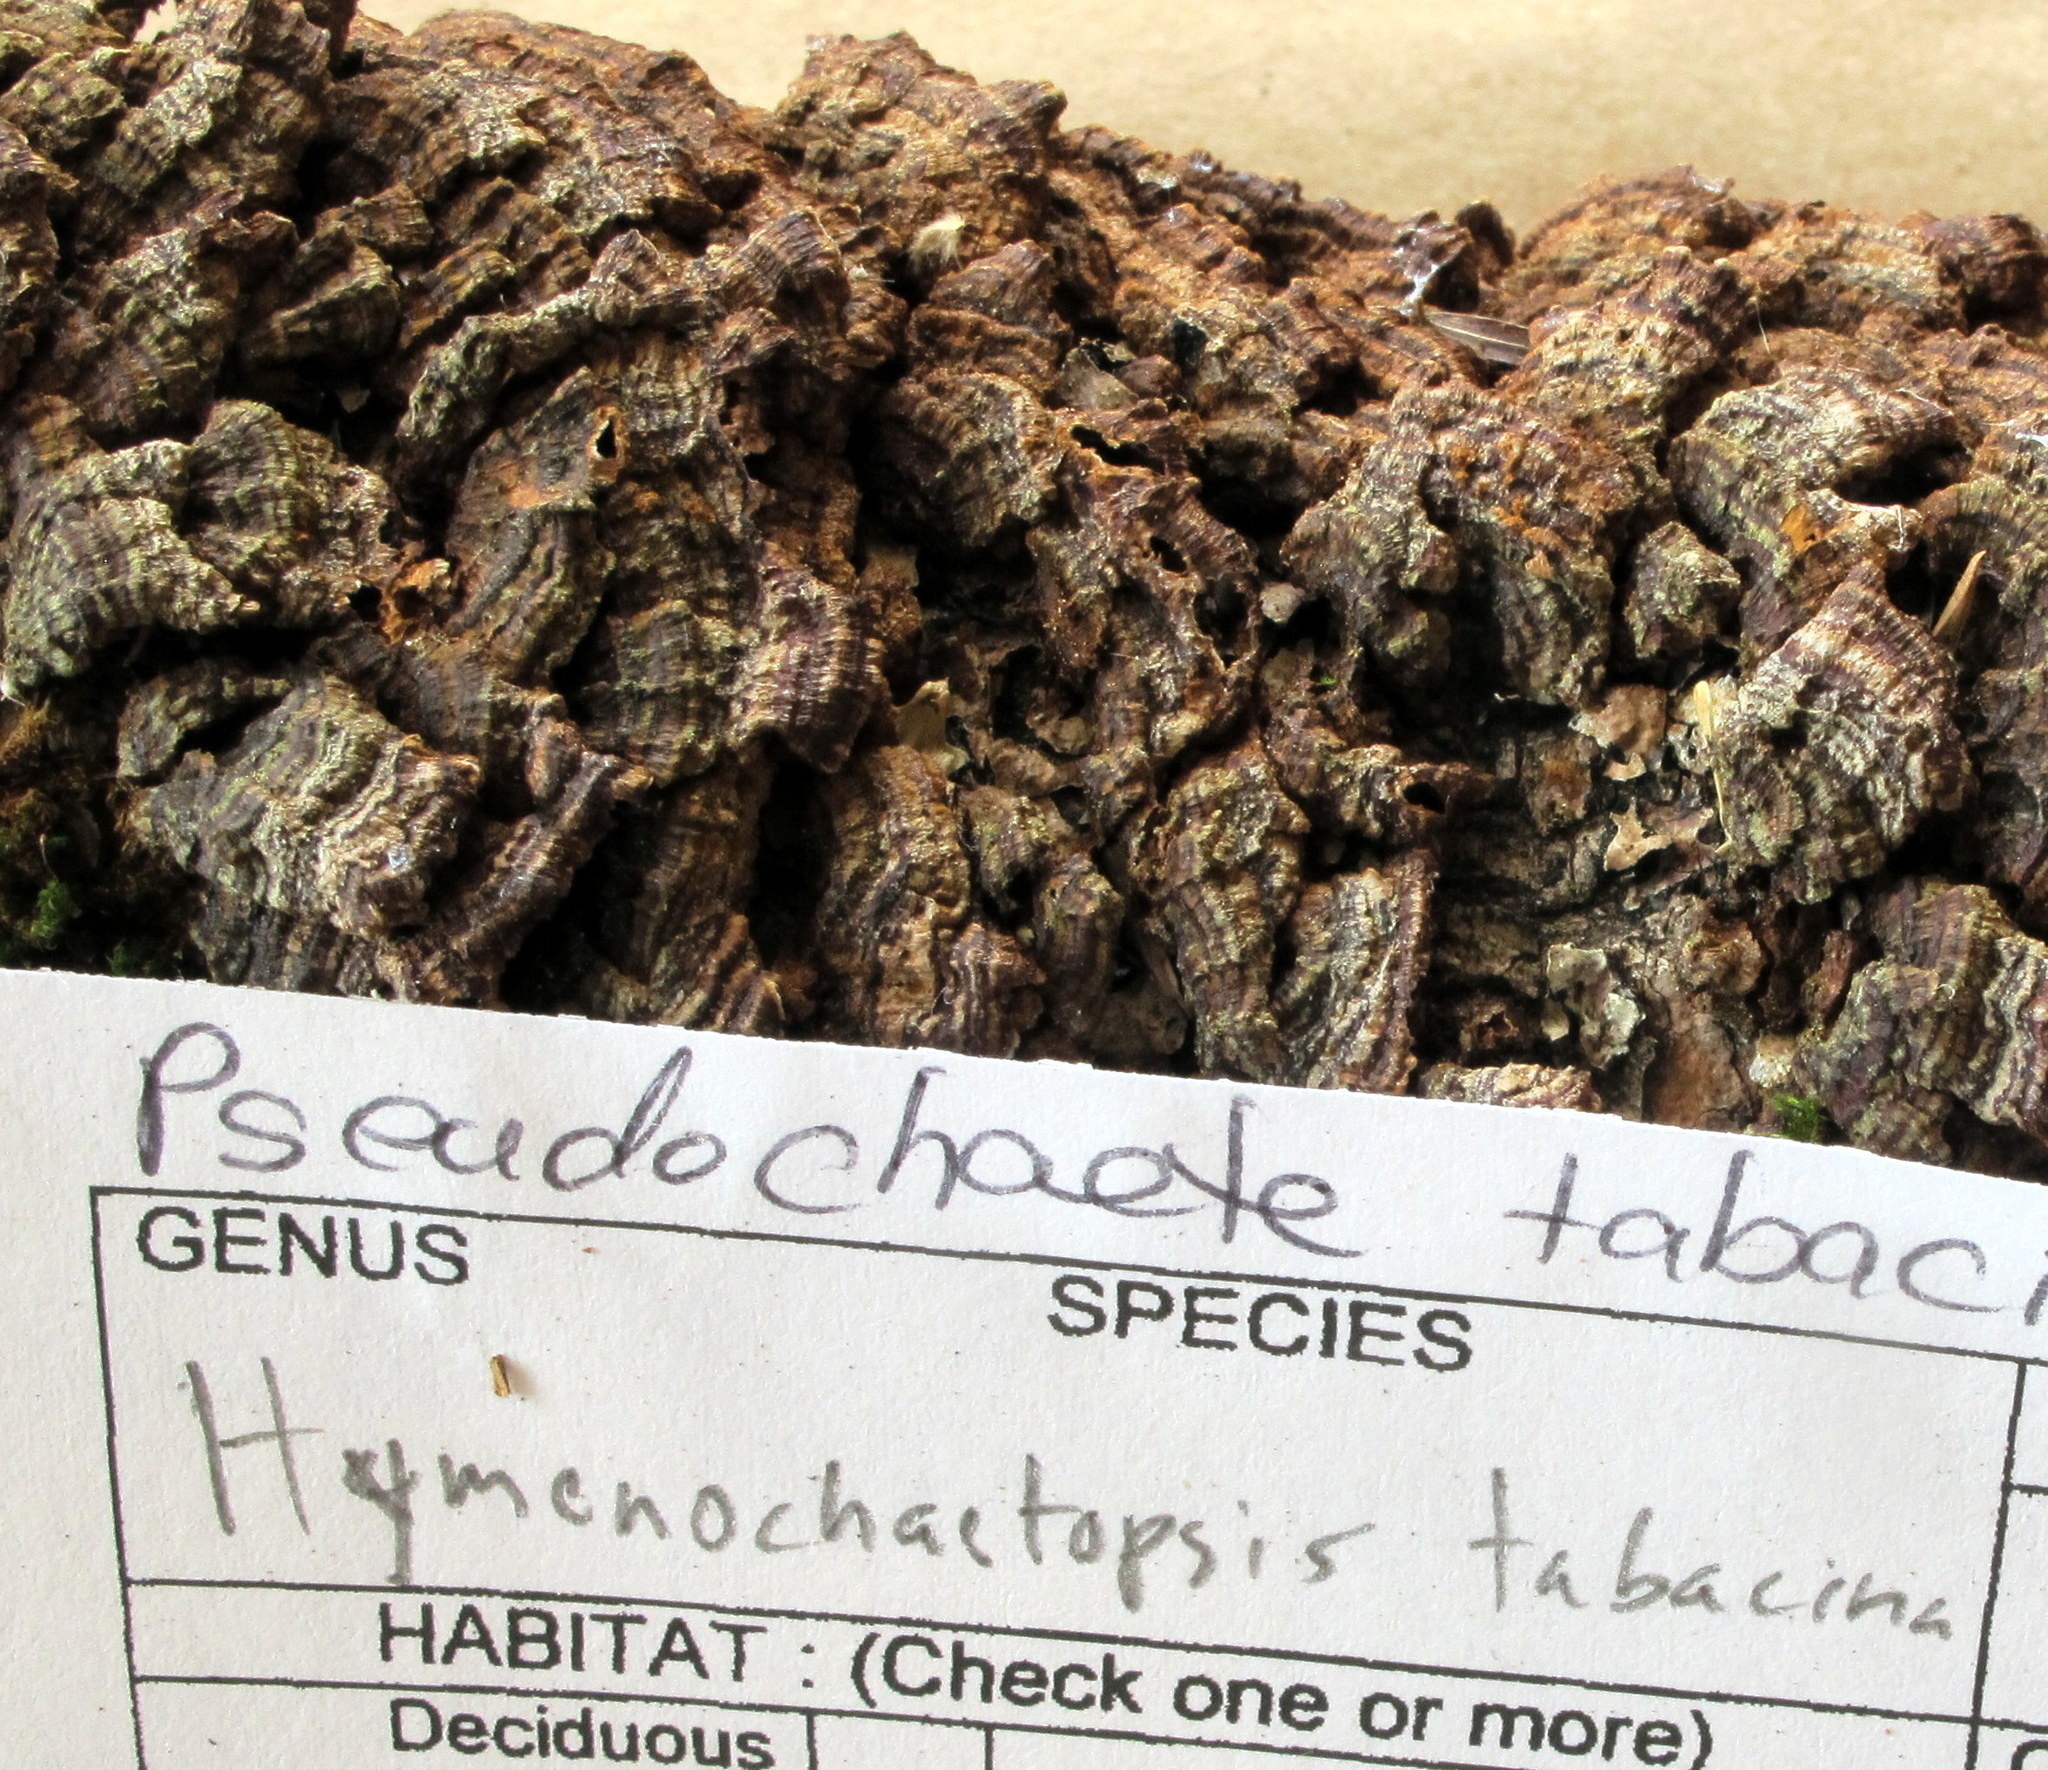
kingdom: Fungi
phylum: Basidiomycota
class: Agaricomycetes
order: Hymenochaetales
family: Hymenochaetaceae
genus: Hydnoporia
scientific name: Hydnoporia tabacina
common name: Willow glue
